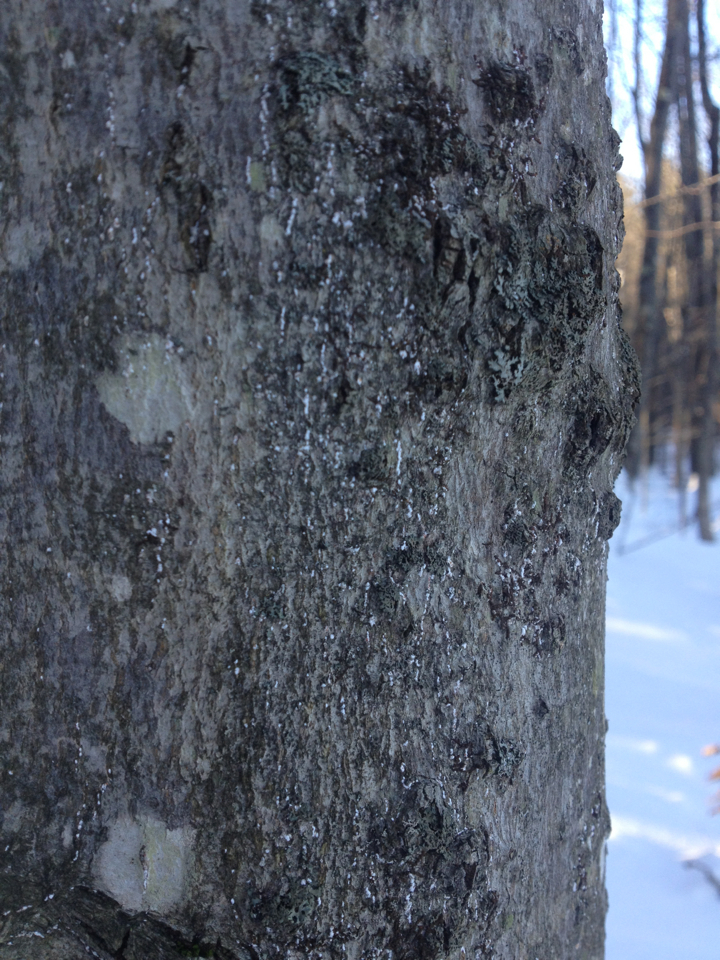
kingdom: Animalia
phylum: Arthropoda
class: Insecta
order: Hemiptera
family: Eriococcidae
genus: Cryptococcus
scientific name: Cryptococcus fagisuga
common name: Beech scale
